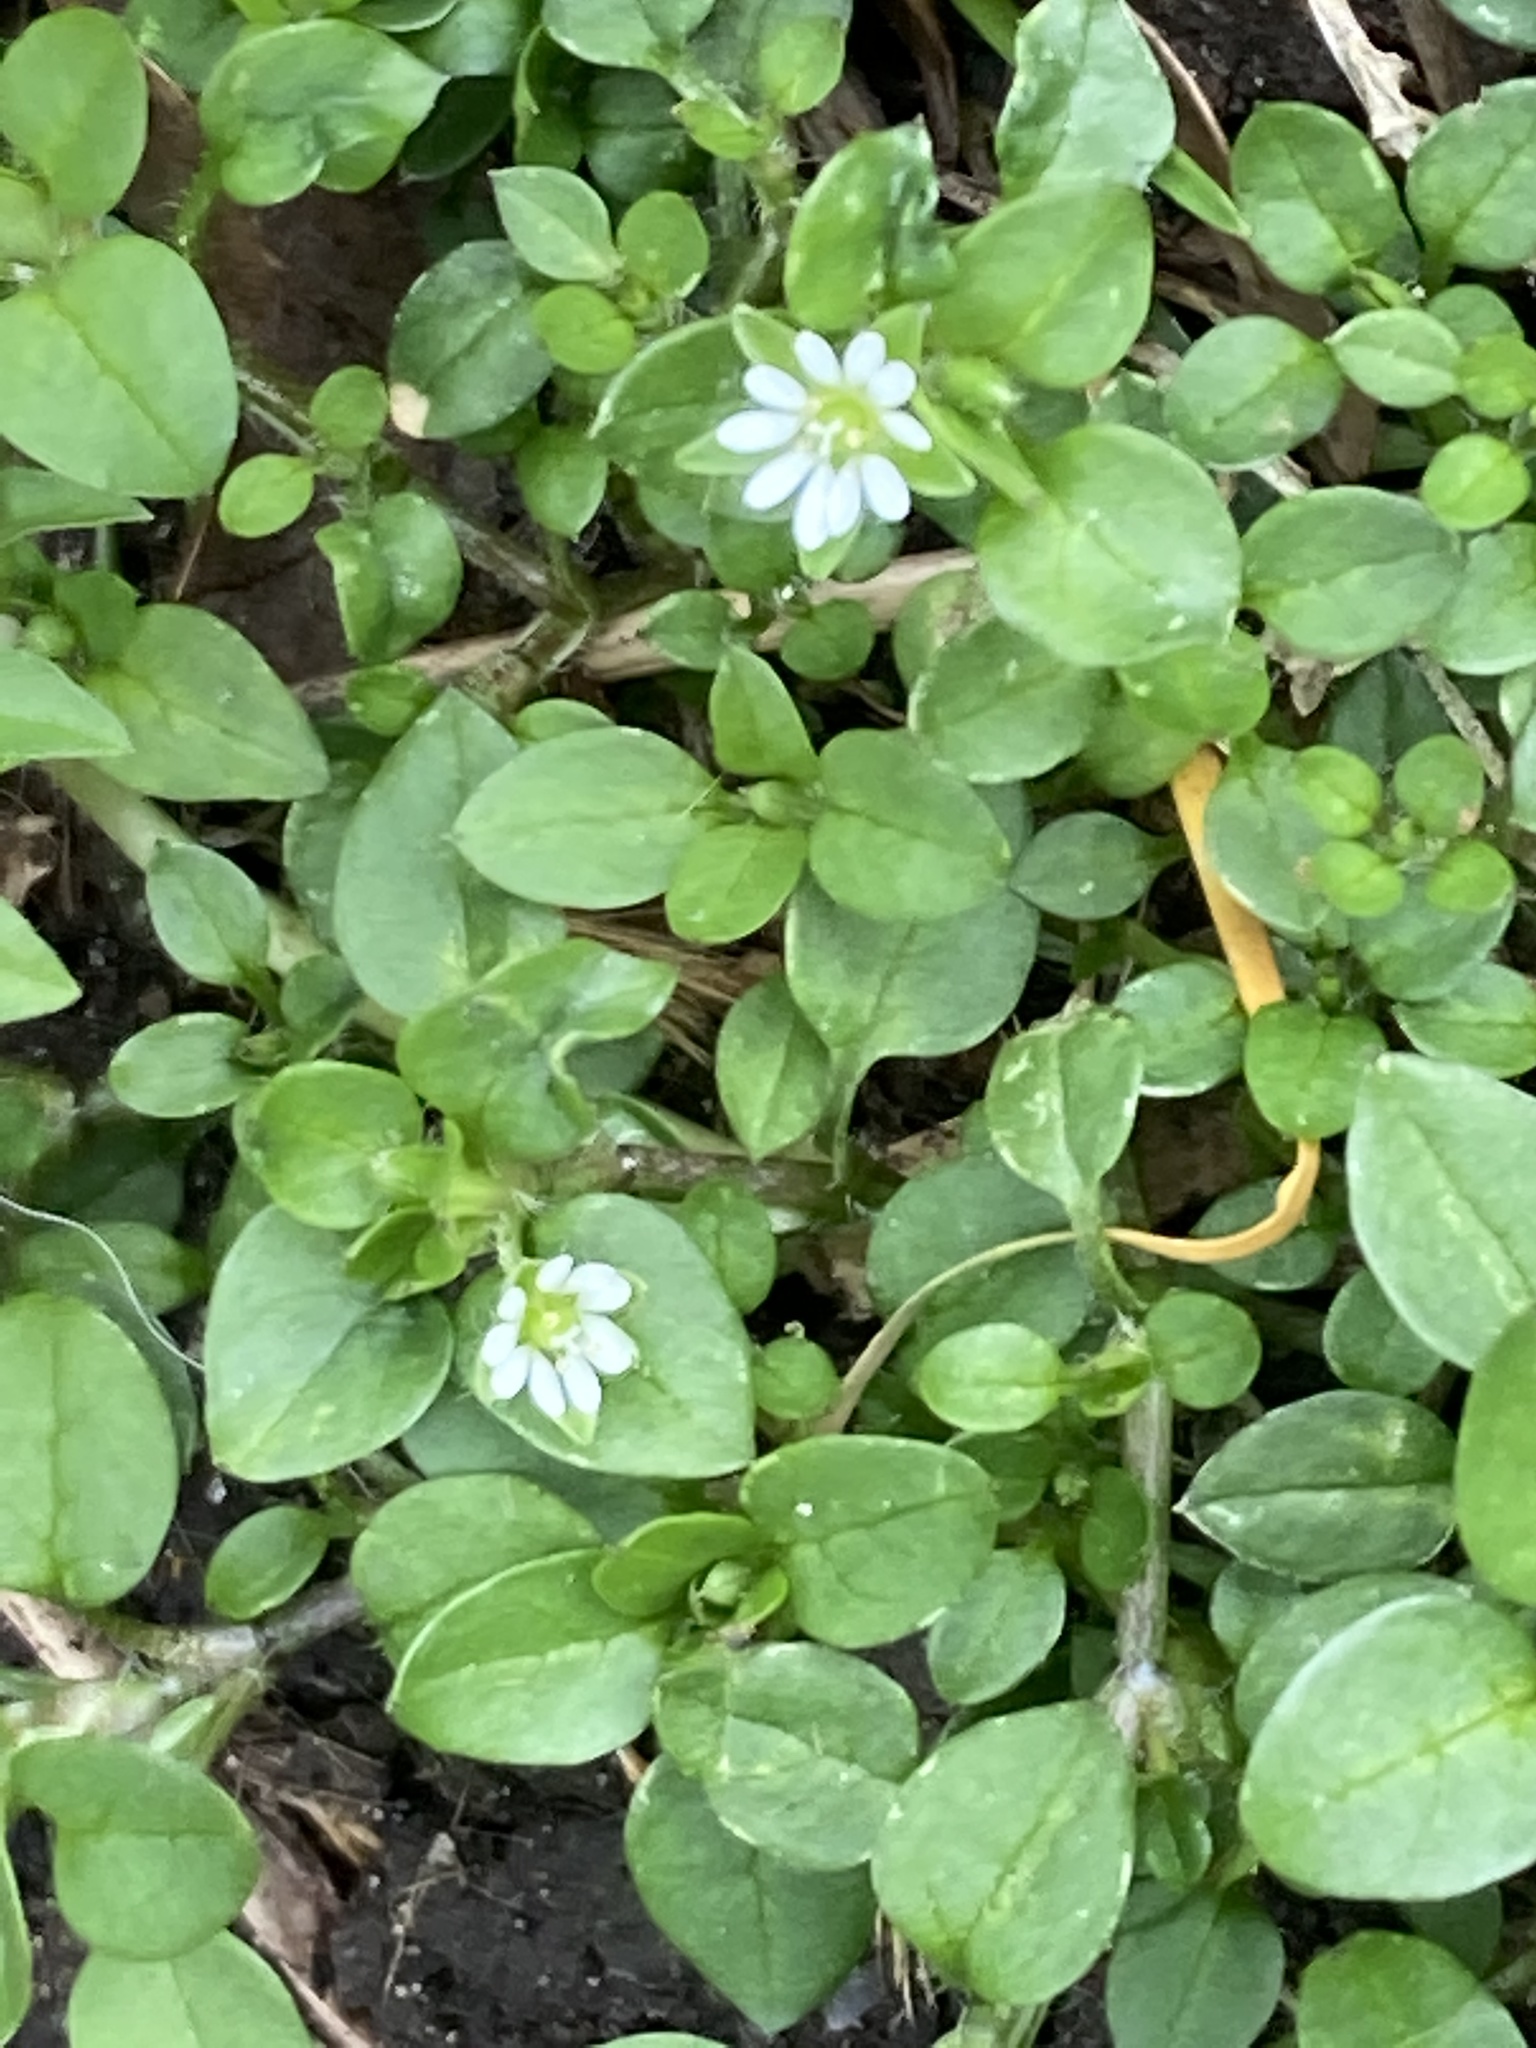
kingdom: Plantae
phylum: Tracheophyta
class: Magnoliopsida
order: Caryophyllales
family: Caryophyllaceae
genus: Stellaria
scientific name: Stellaria media
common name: Common chickweed
